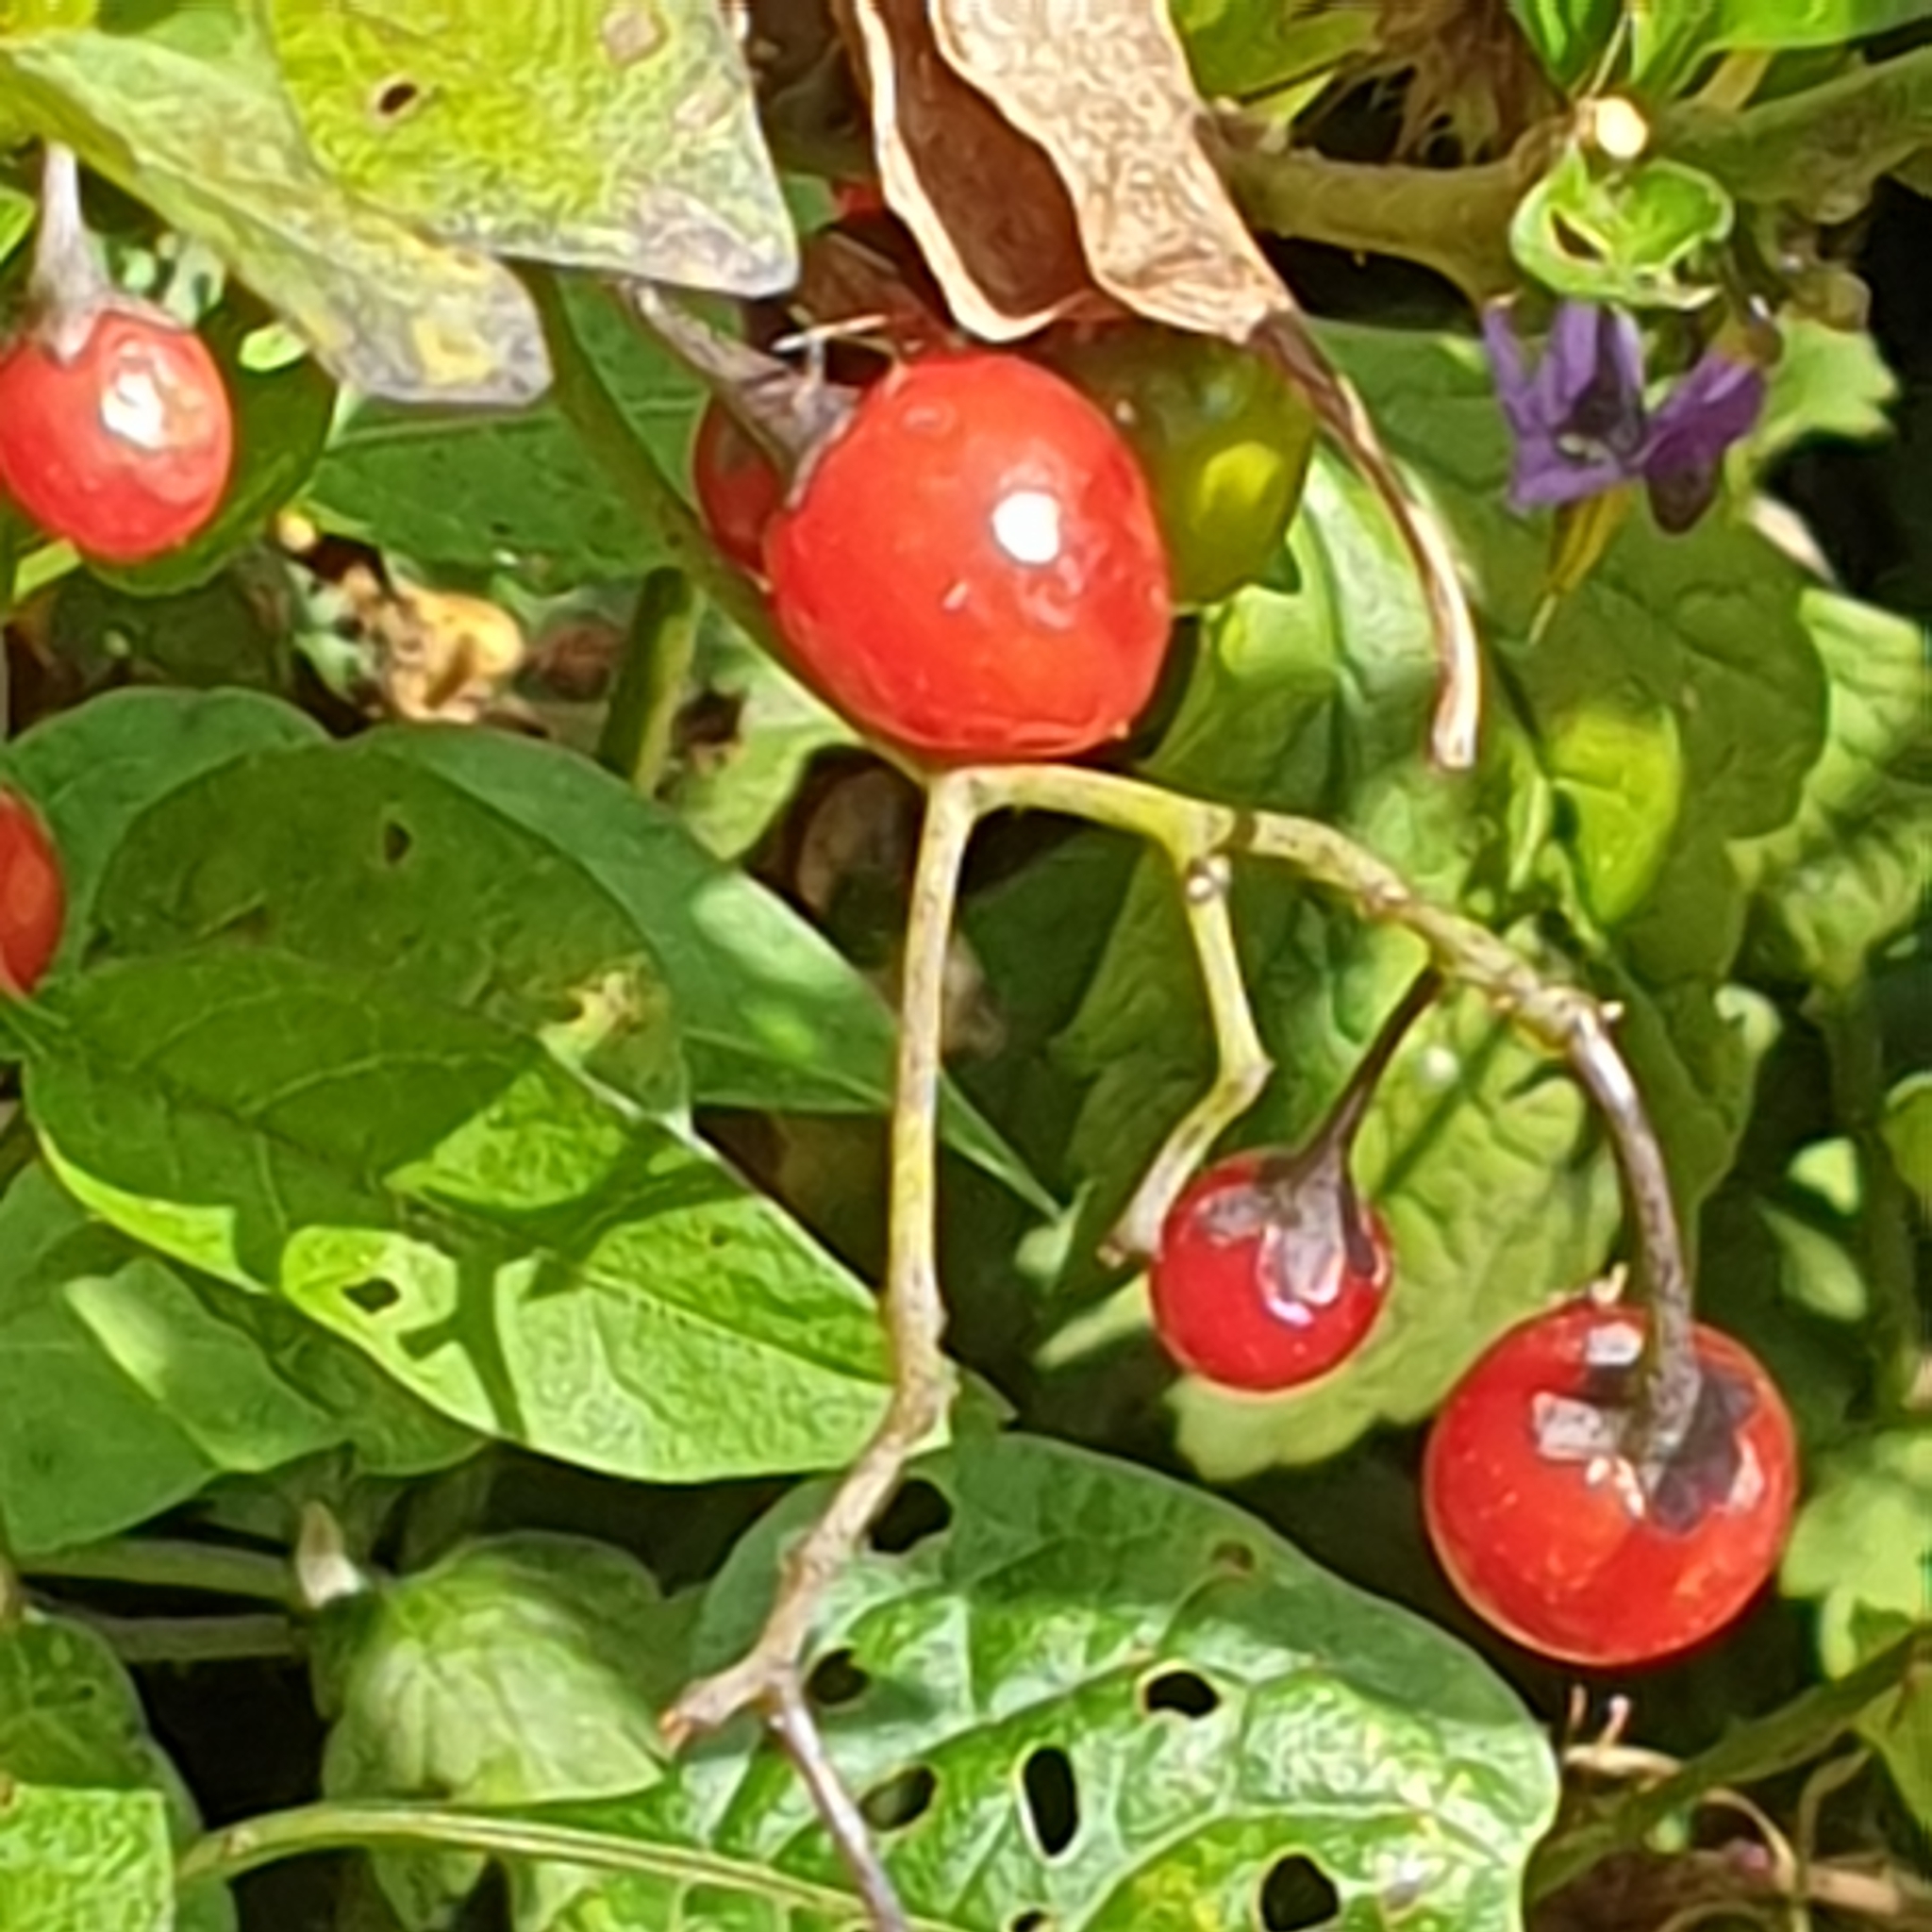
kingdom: Plantae
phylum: Tracheophyta
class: Magnoliopsida
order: Solanales
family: Solanaceae
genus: Solanum
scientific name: Solanum dulcamara
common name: Climbing nightshade
